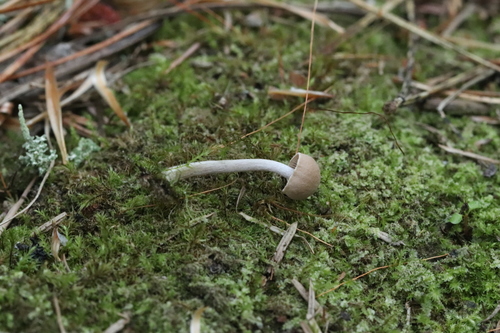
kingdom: Fungi
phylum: Basidiomycota
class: Agaricomycetes
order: Agaricales
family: Callistosporiaceae
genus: Pseudolaccaria
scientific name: Pseudolaccaria pachyphylla
